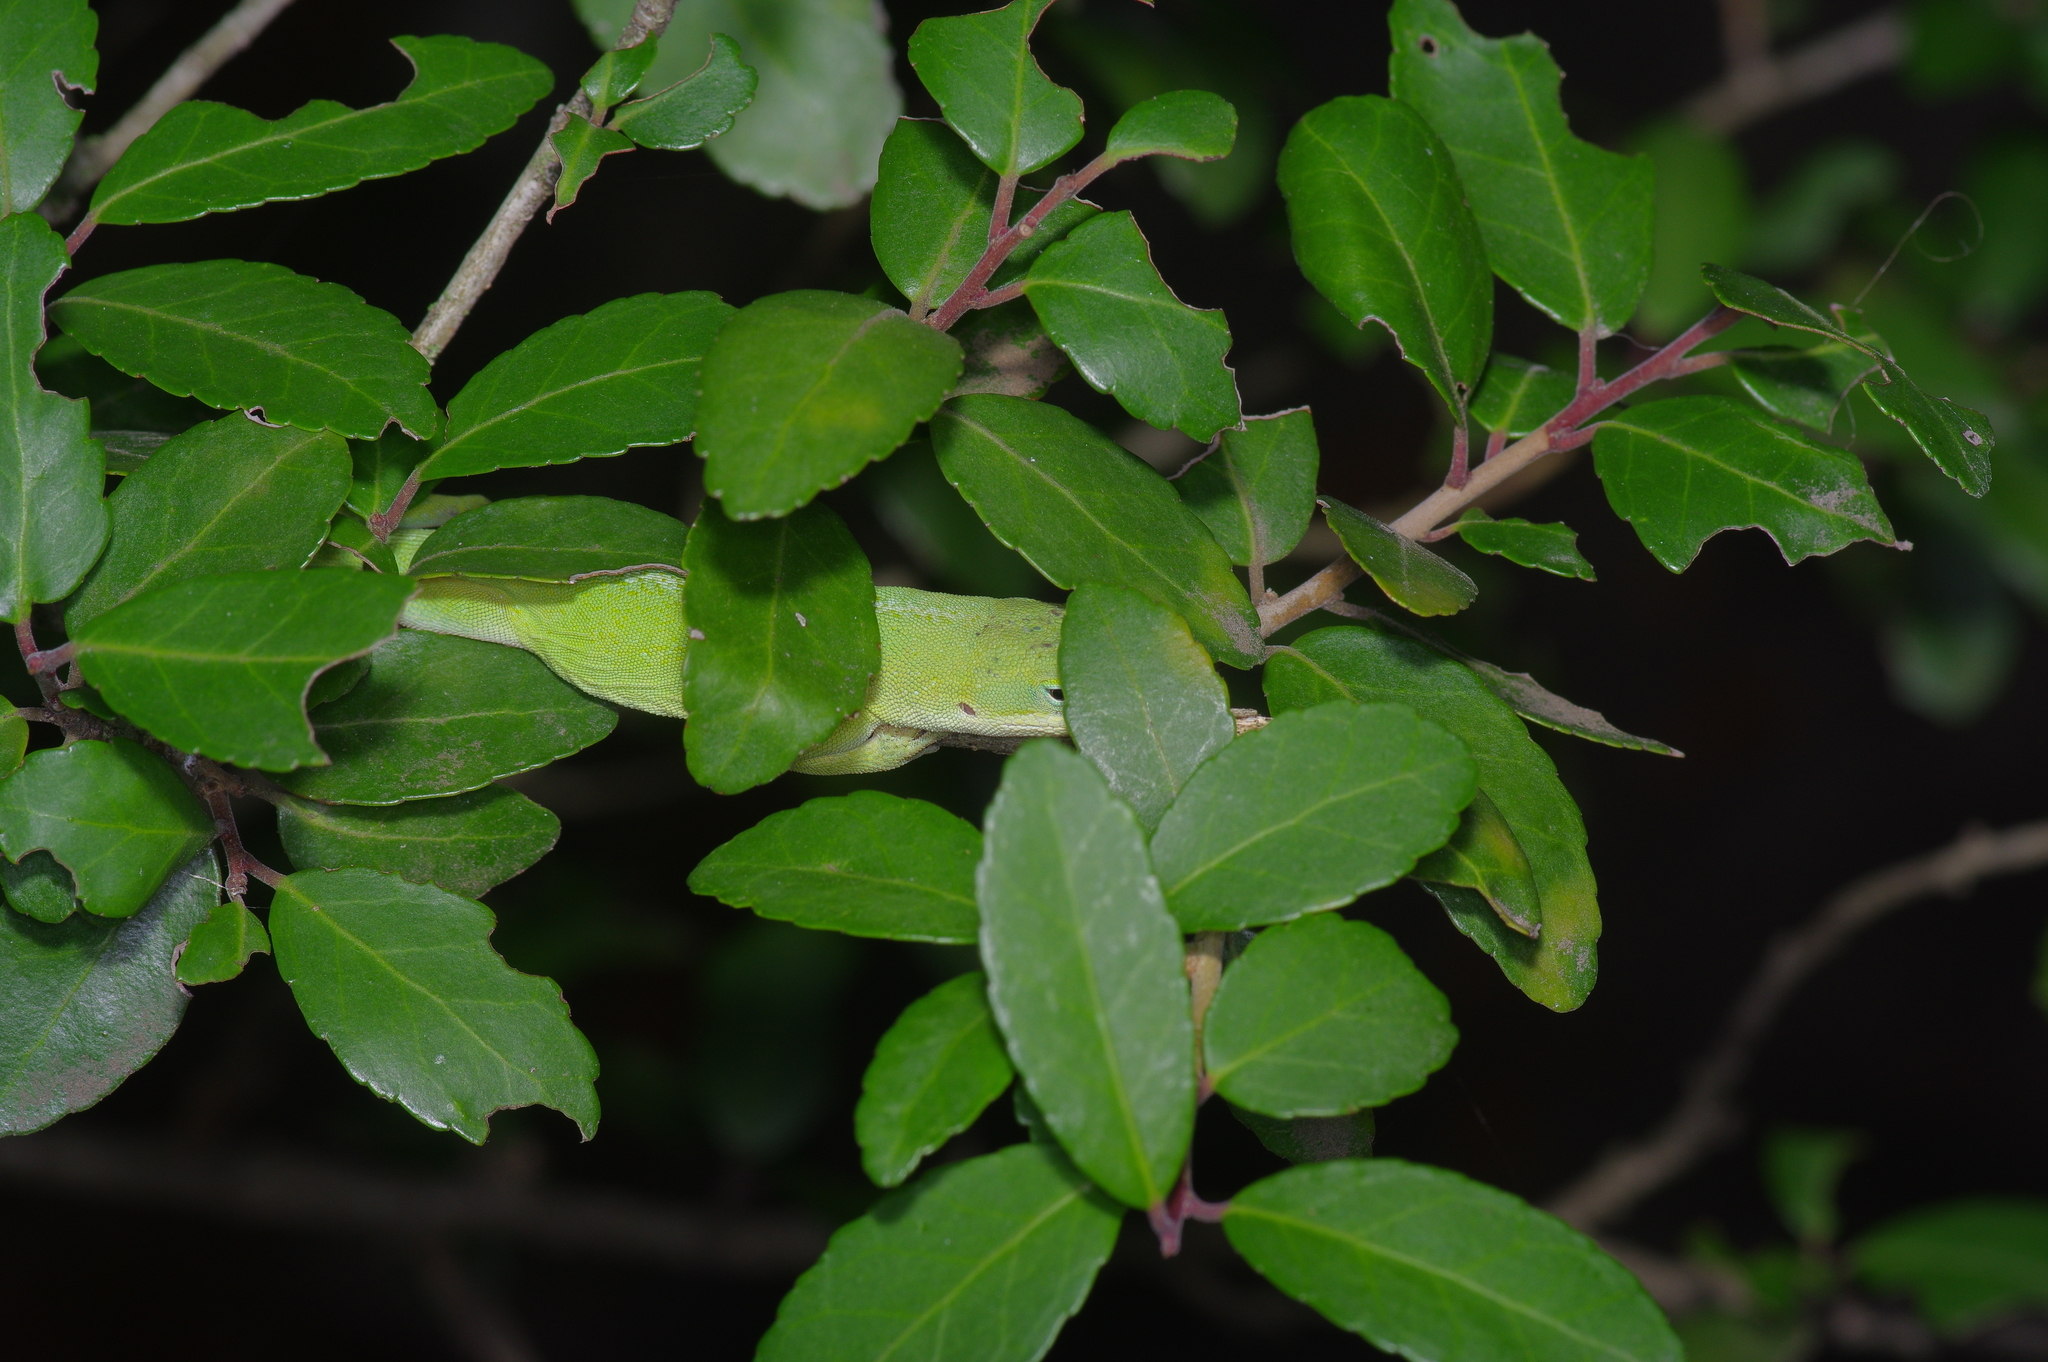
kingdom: Animalia
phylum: Chordata
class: Squamata
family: Dactyloidae
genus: Anolis
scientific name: Anolis carolinensis
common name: Green anole
